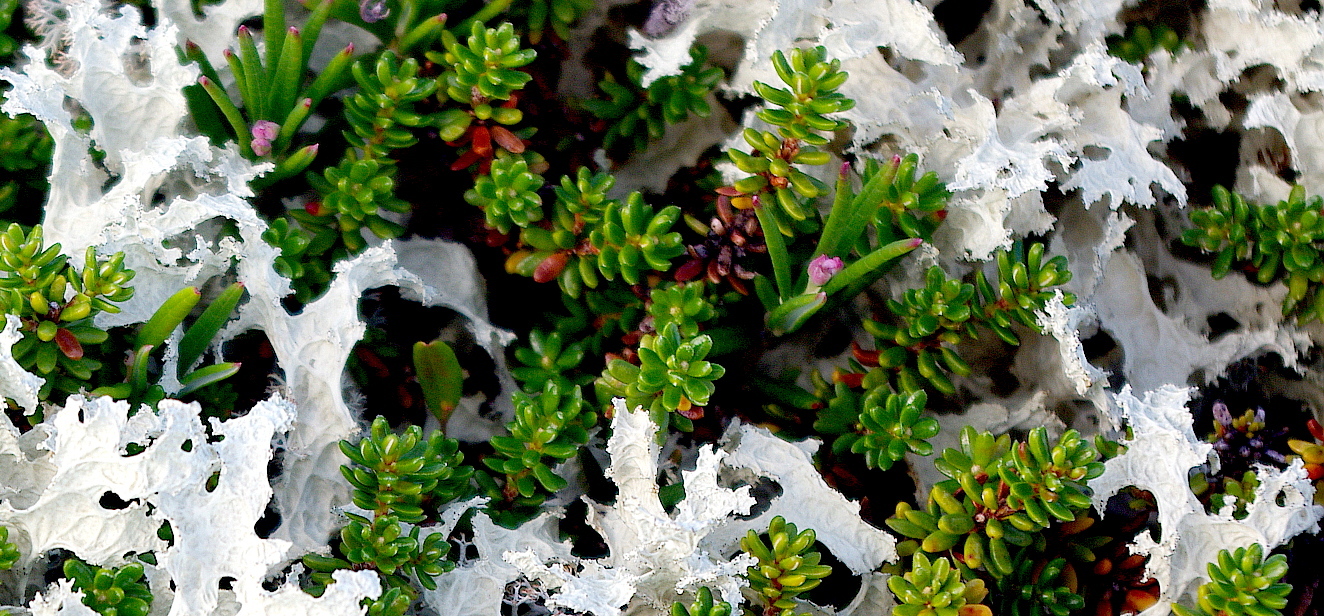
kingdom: Plantae
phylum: Tracheophyta
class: Magnoliopsida
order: Ericales
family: Ericaceae
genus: Empetrum
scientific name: Empetrum nigrum
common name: Black crowberry
